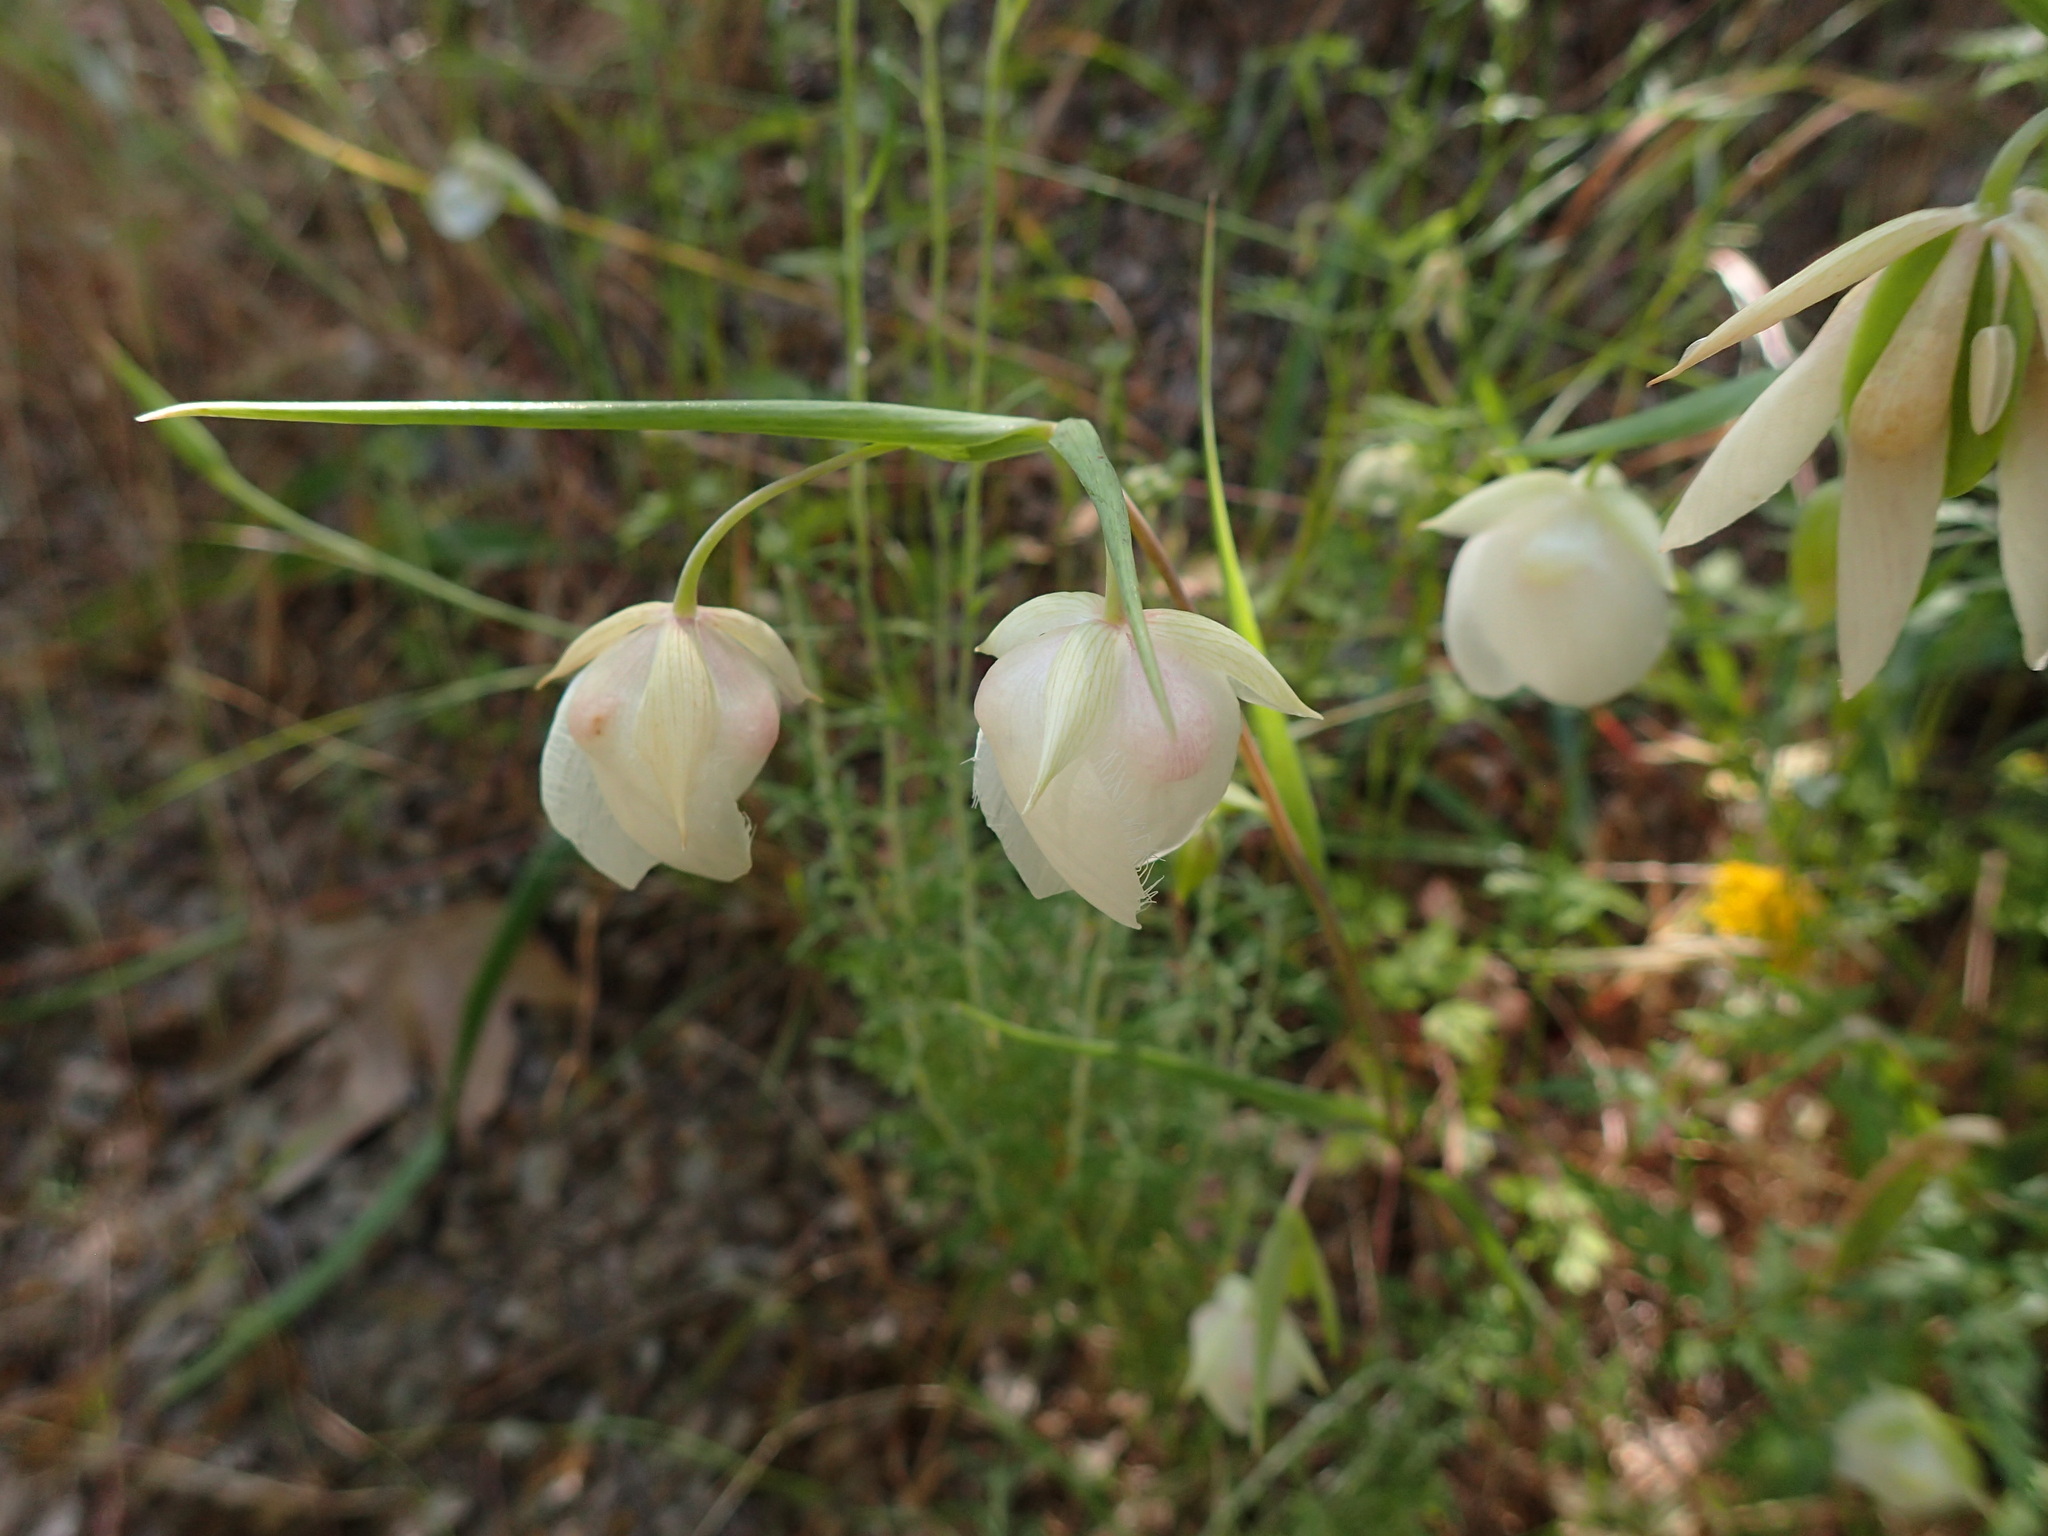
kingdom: Plantae
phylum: Tracheophyta
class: Liliopsida
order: Liliales
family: Liliaceae
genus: Calochortus
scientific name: Calochortus albus
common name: Fairy-lantern
